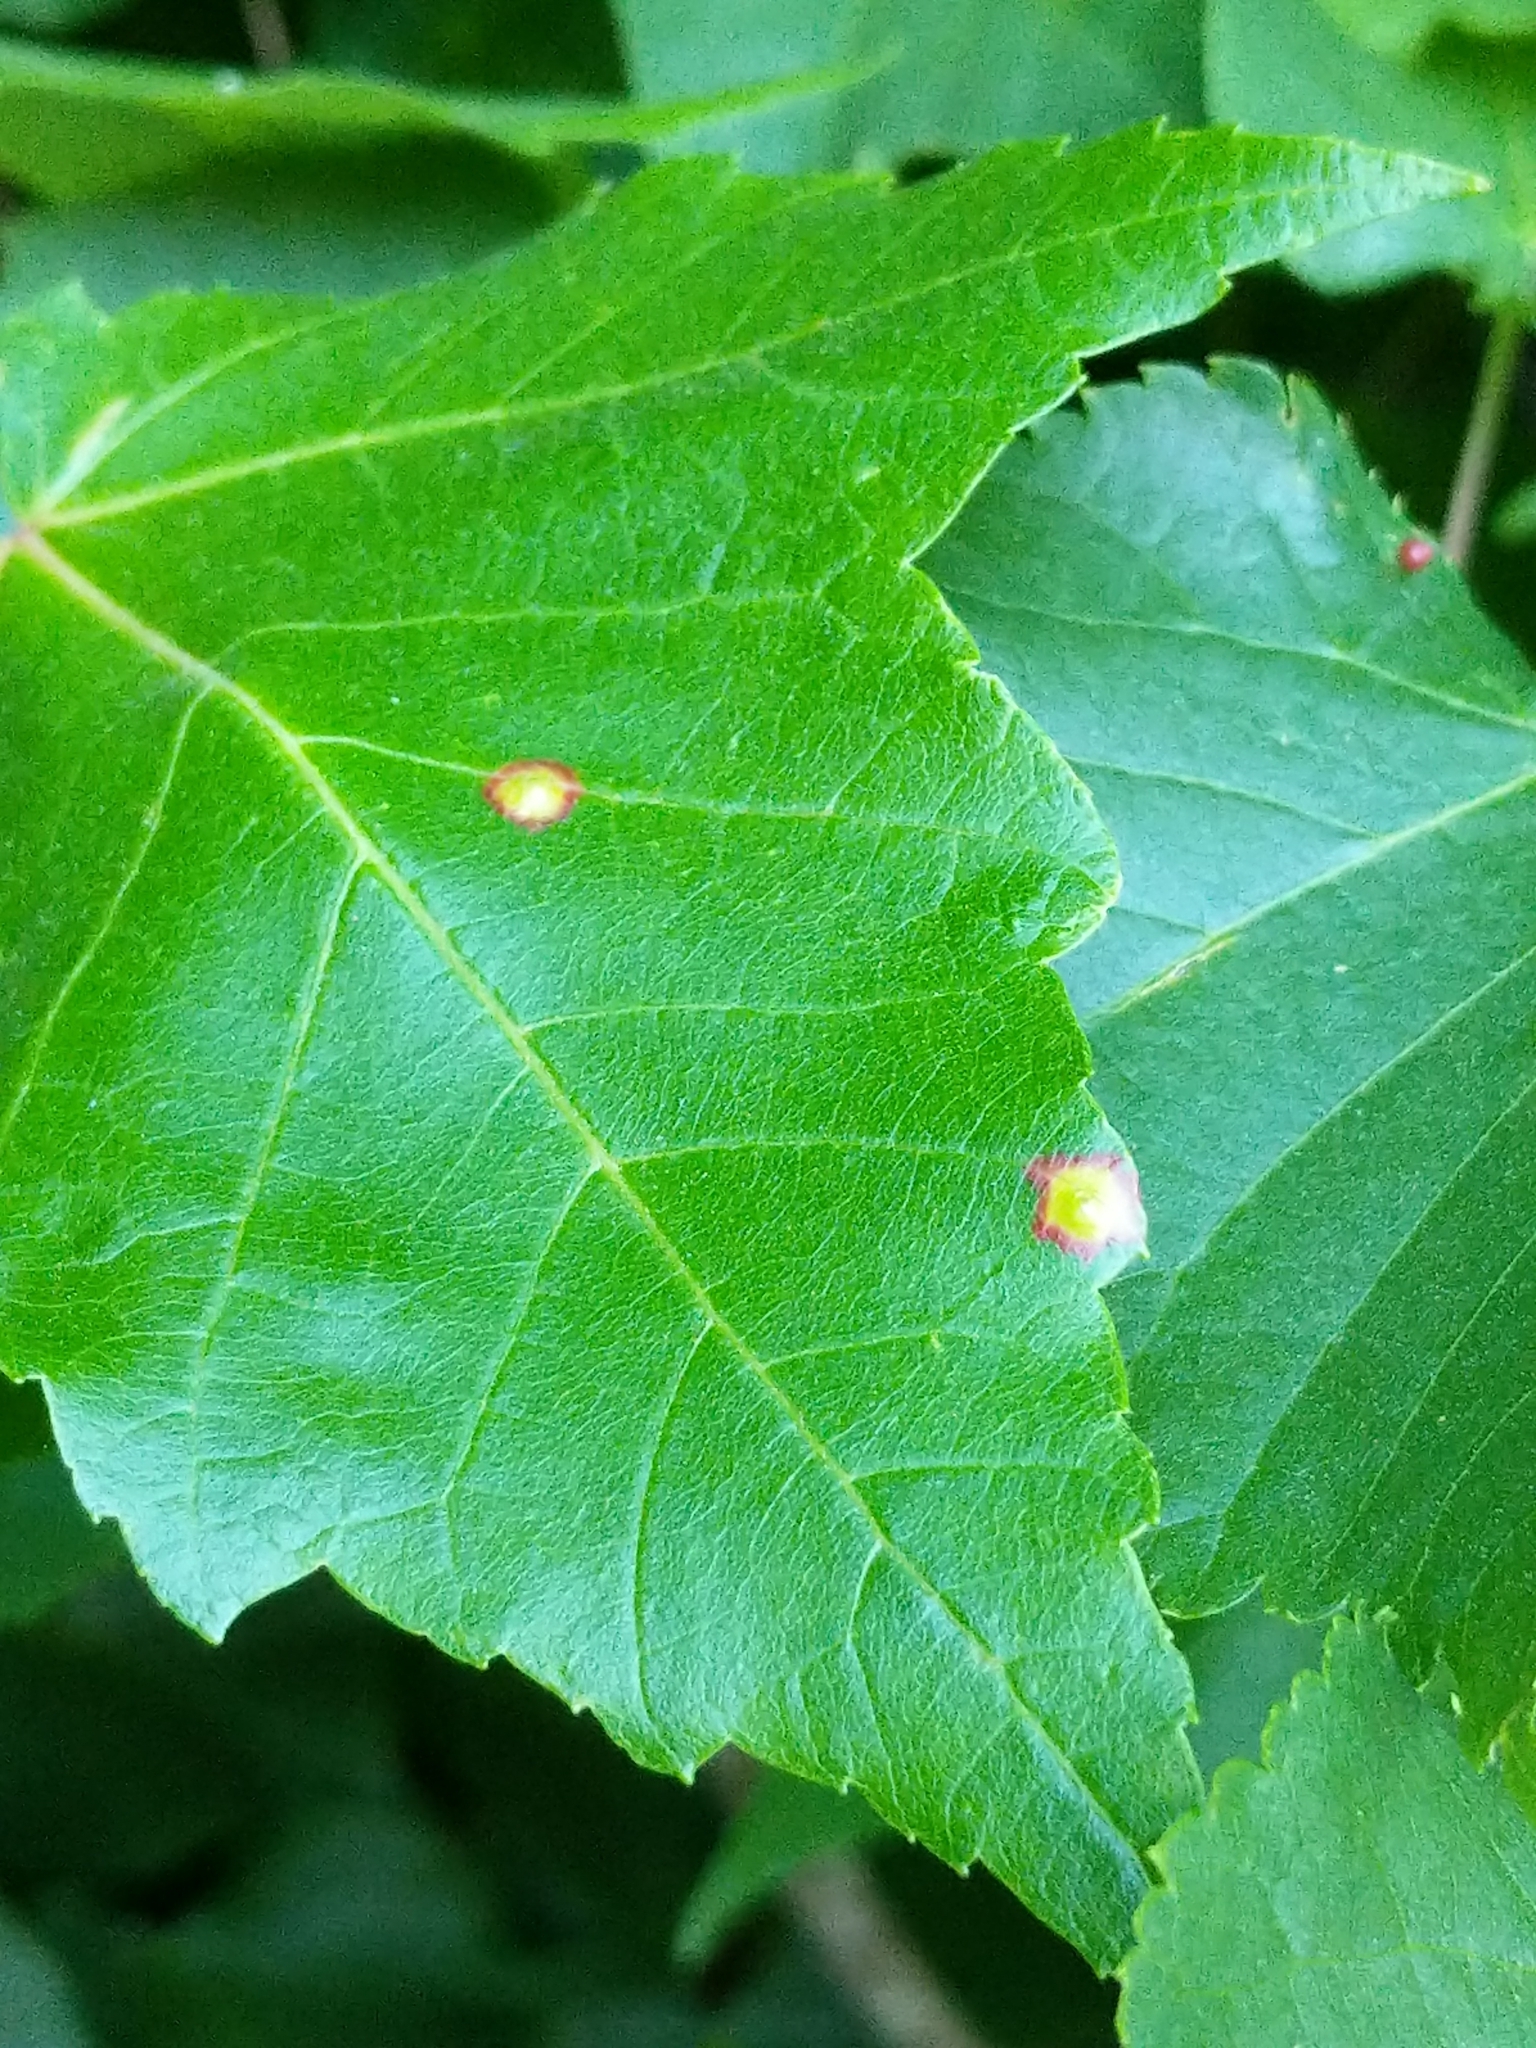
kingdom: Animalia
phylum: Arthropoda
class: Insecta
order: Diptera
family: Cecidomyiidae
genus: Acericecis
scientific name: Acericecis ocellaris
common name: Ocellate gall midge
